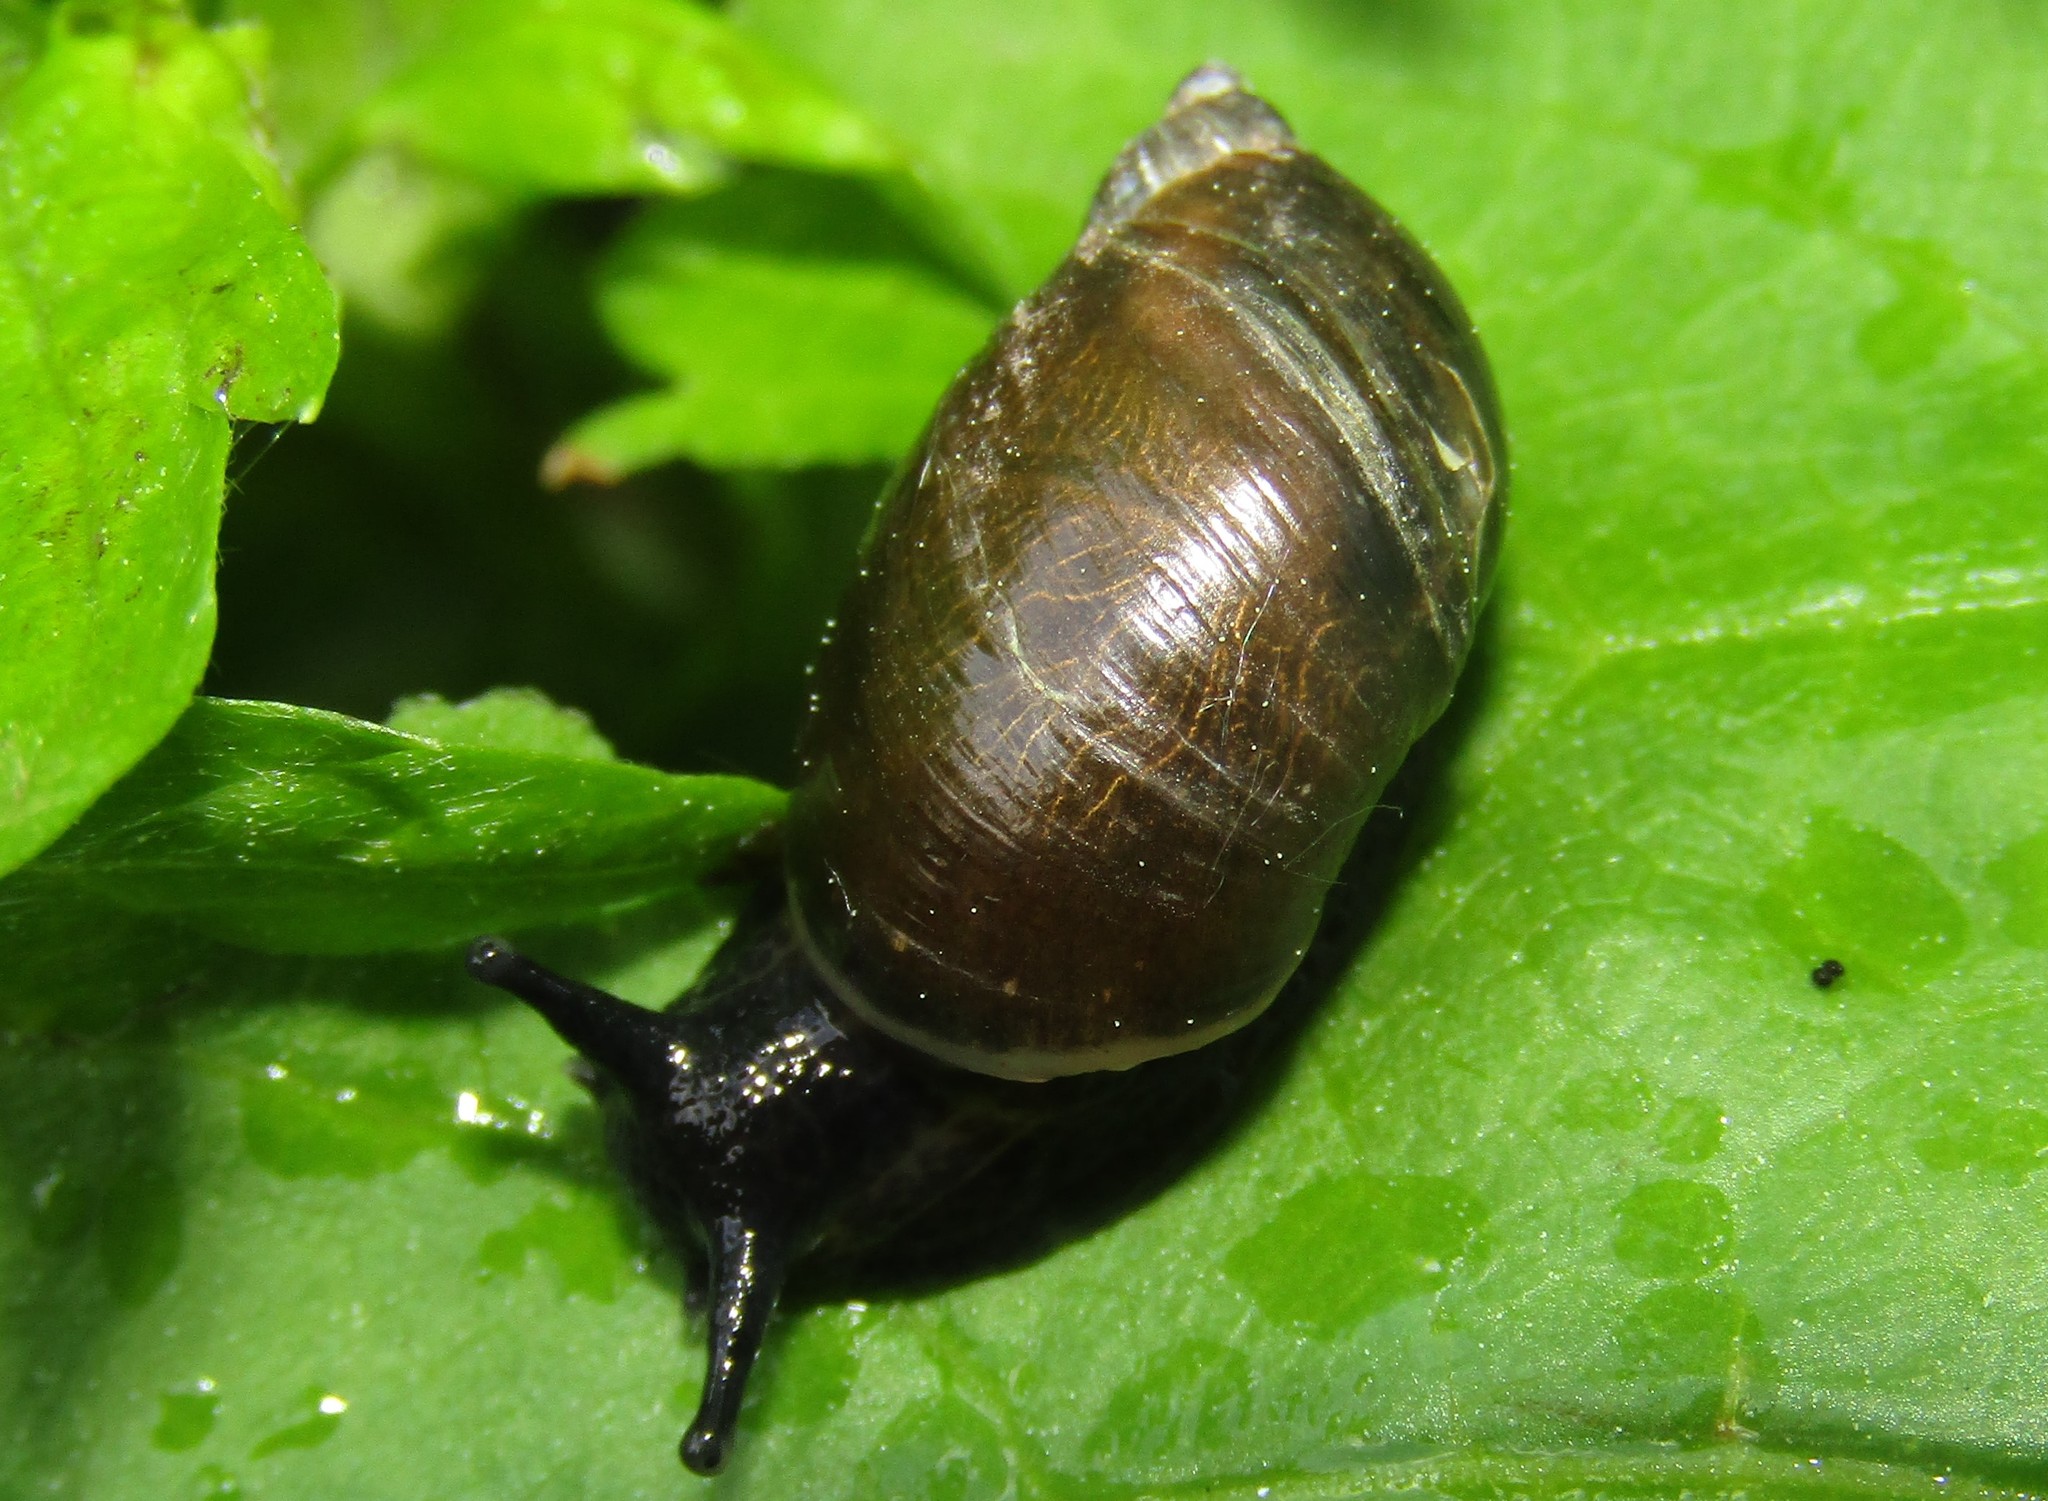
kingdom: Animalia
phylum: Mollusca
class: Gastropoda
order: Stylommatophora
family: Succineidae
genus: Succinea
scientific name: Succinea putris
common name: European ambersnail
